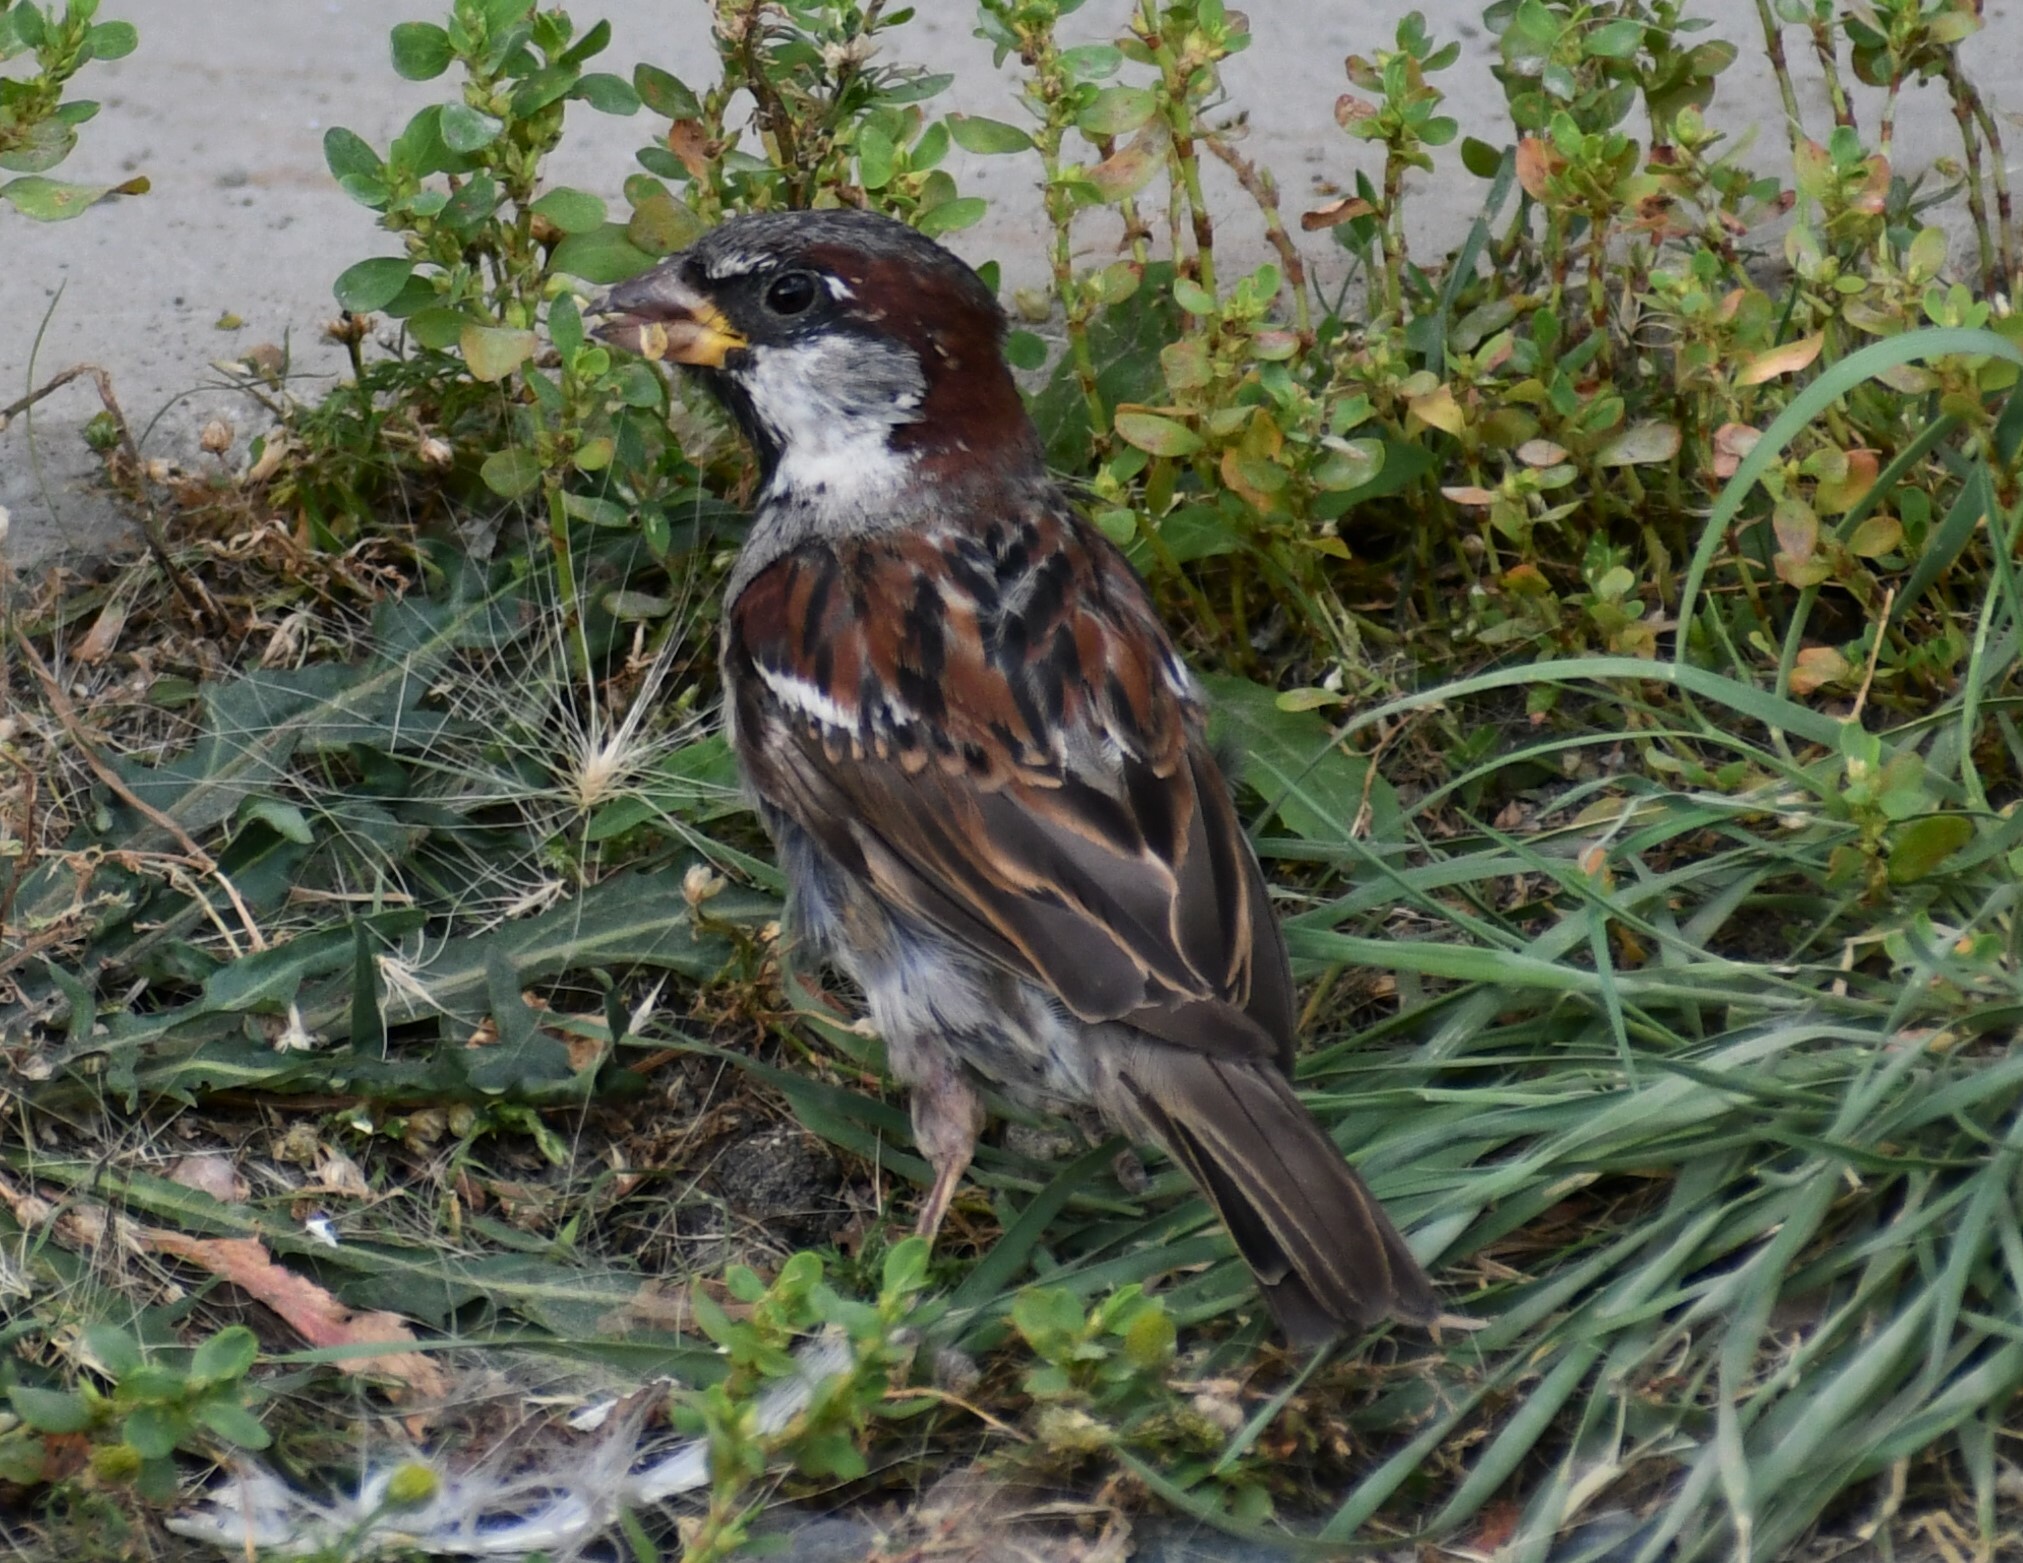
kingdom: Animalia
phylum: Chordata
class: Aves
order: Passeriformes
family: Passeridae
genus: Passer
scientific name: Passer domesticus
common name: House sparrow
